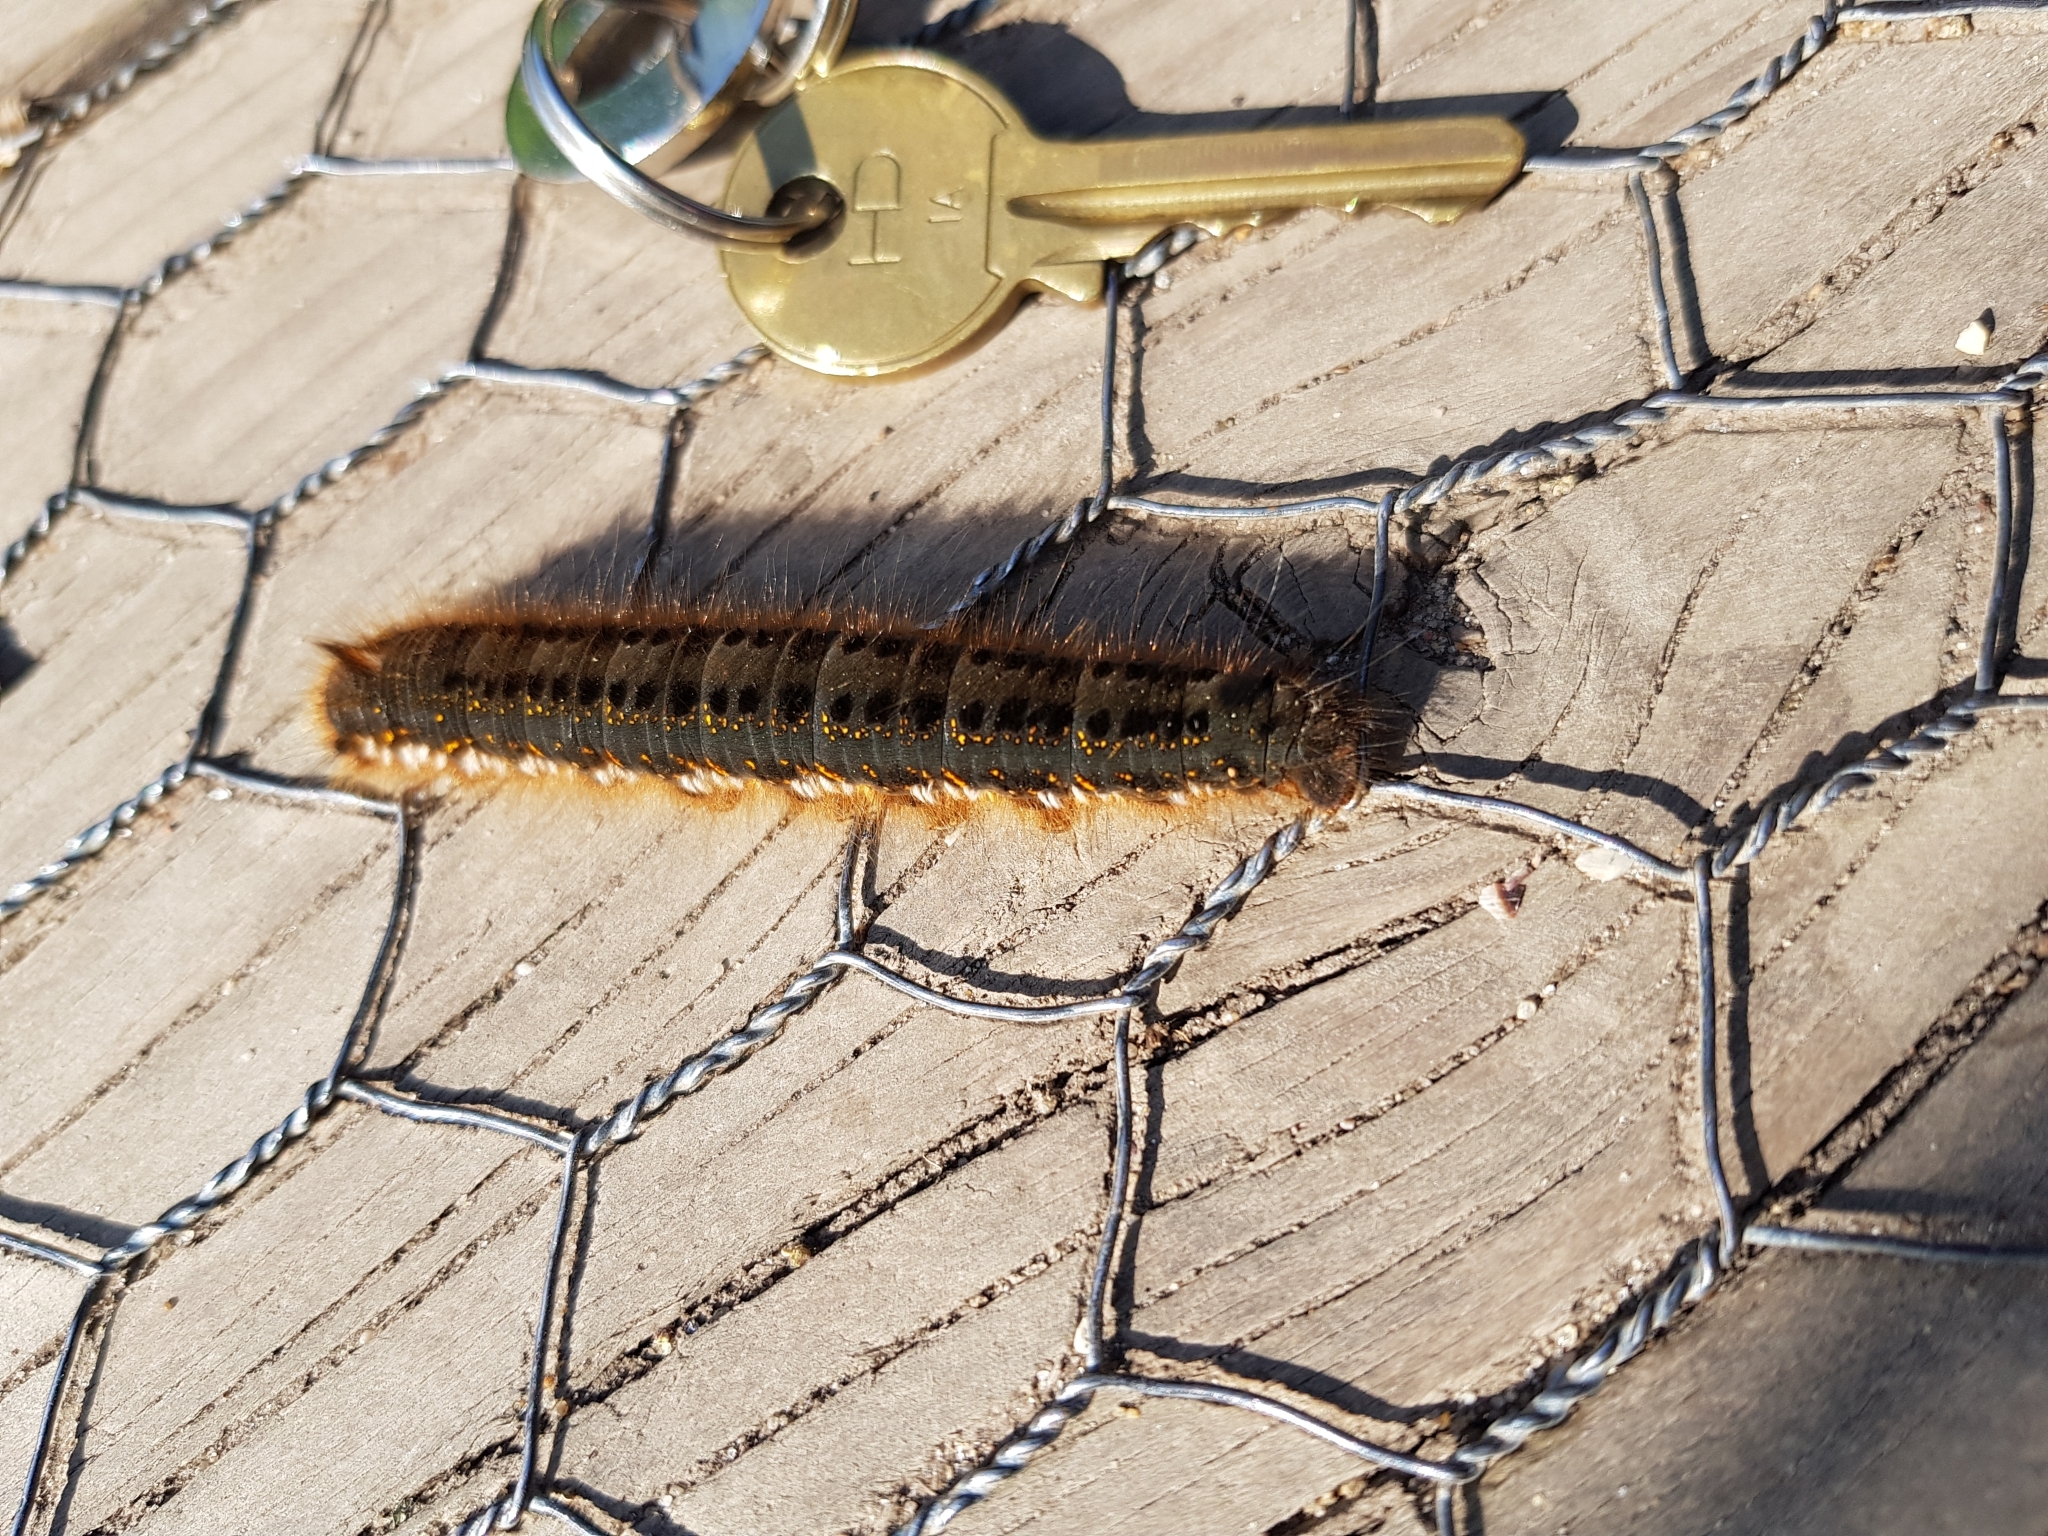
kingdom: Animalia
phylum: Arthropoda
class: Insecta
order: Lepidoptera
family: Lasiocampidae
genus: Euthrix
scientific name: Euthrix potatoria
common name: Drinker
